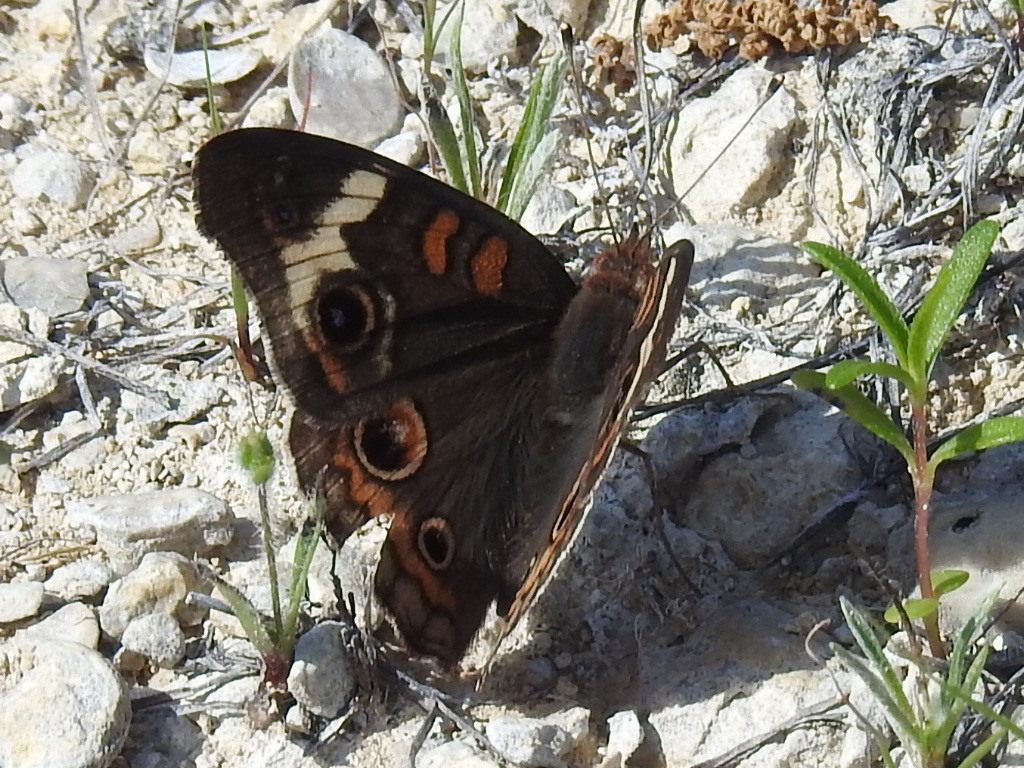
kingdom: Animalia
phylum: Arthropoda
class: Insecta
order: Lepidoptera
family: Nymphalidae
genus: Junonia
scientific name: Junonia coenia
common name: Common buckeye
